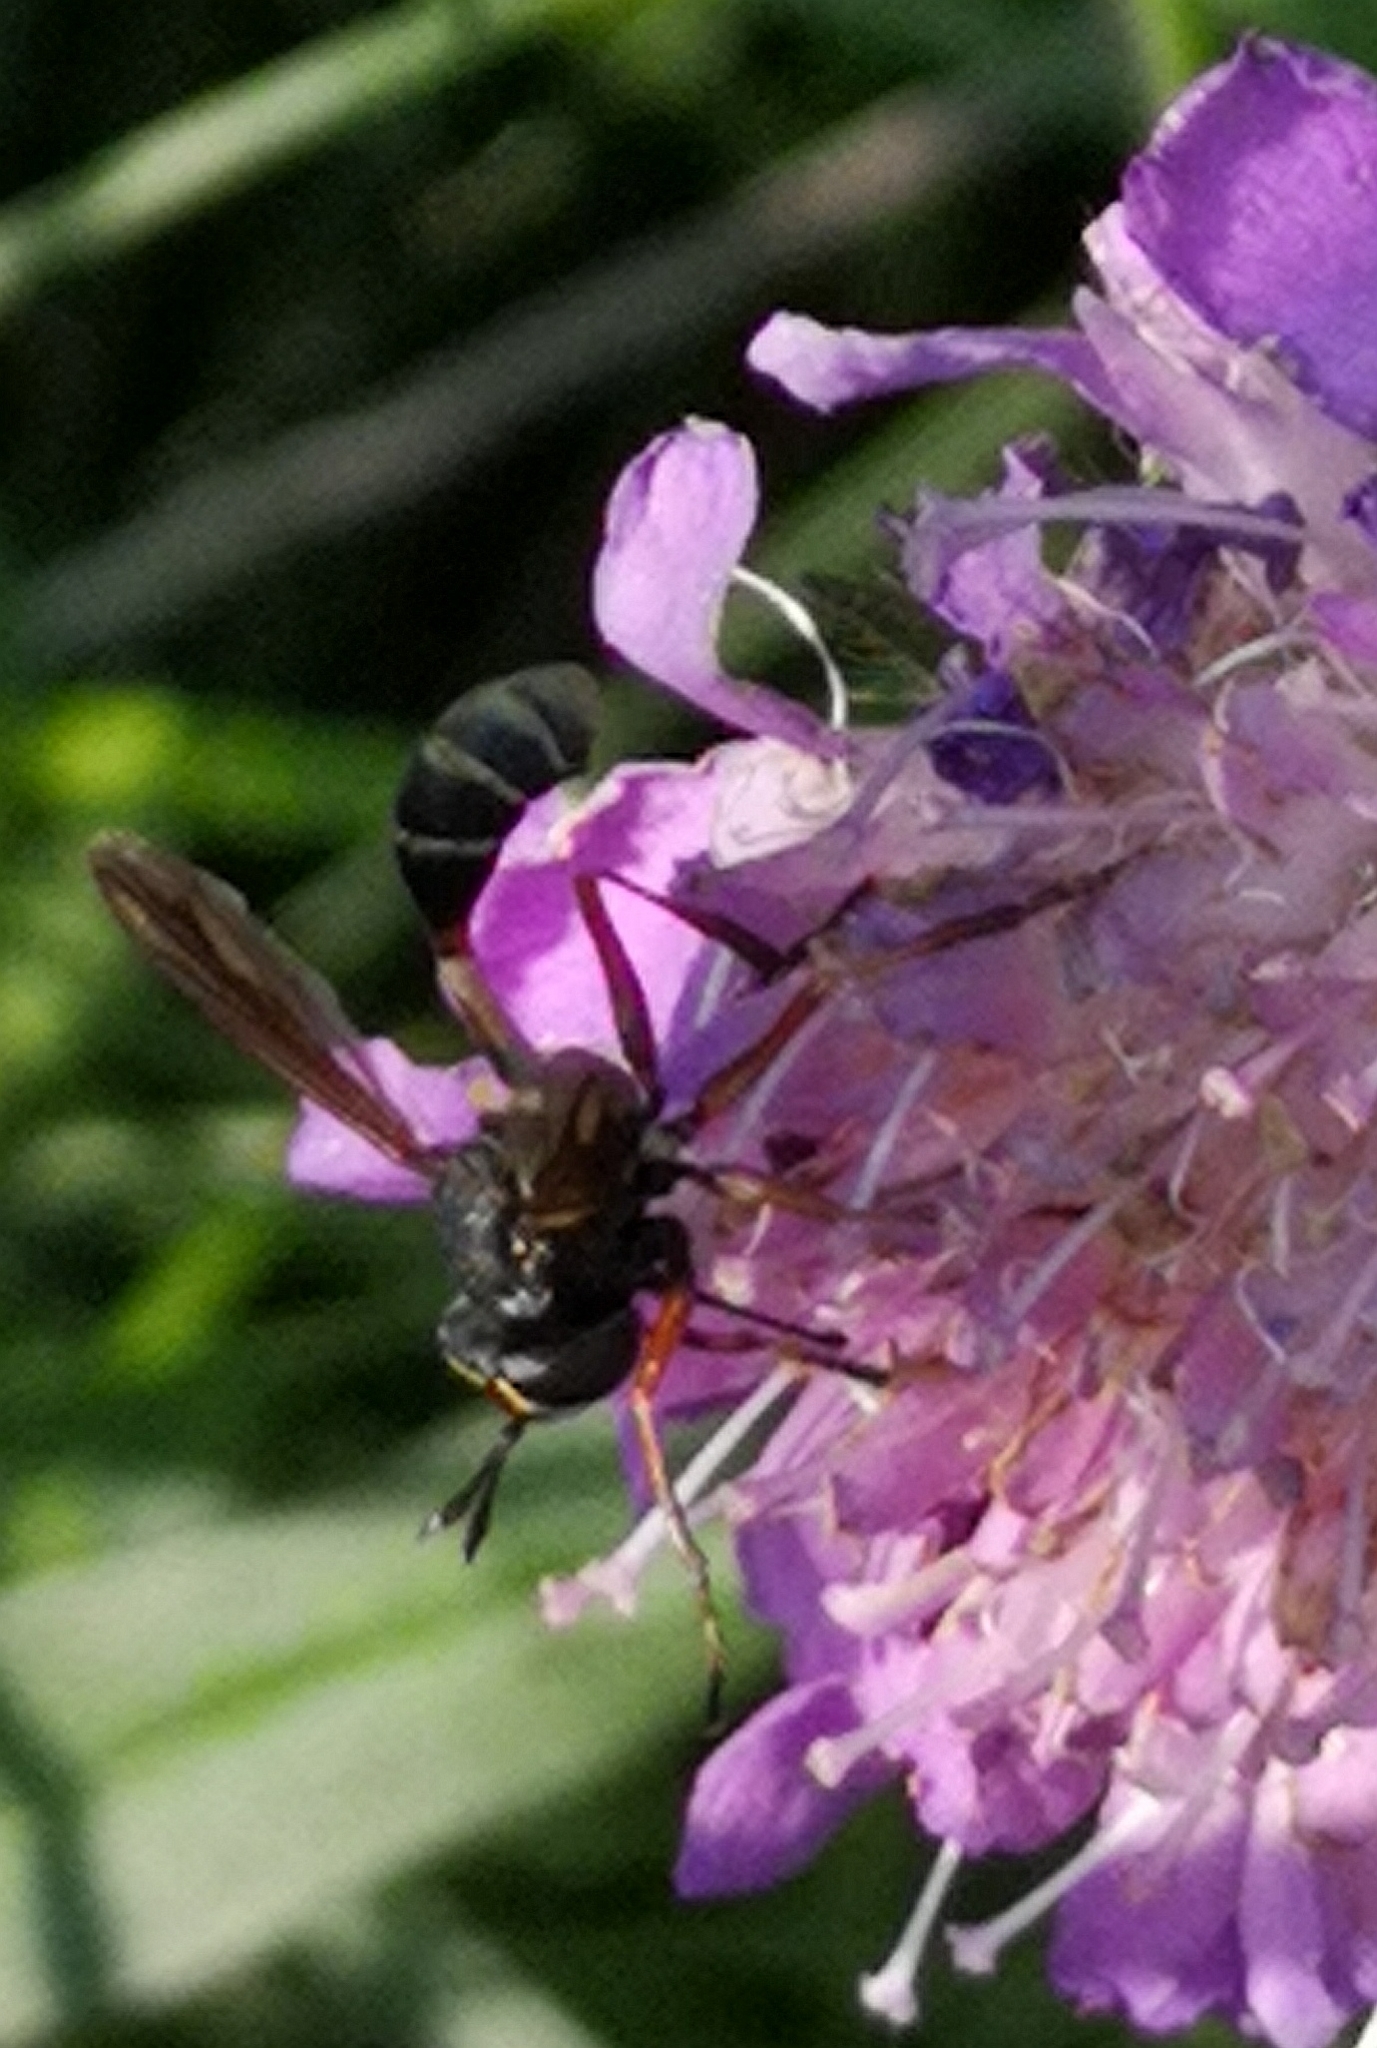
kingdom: Animalia
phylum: Arthropoda
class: Insecta
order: Diptera
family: Conopidae
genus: Physocephala
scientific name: Physocephala rufipes
